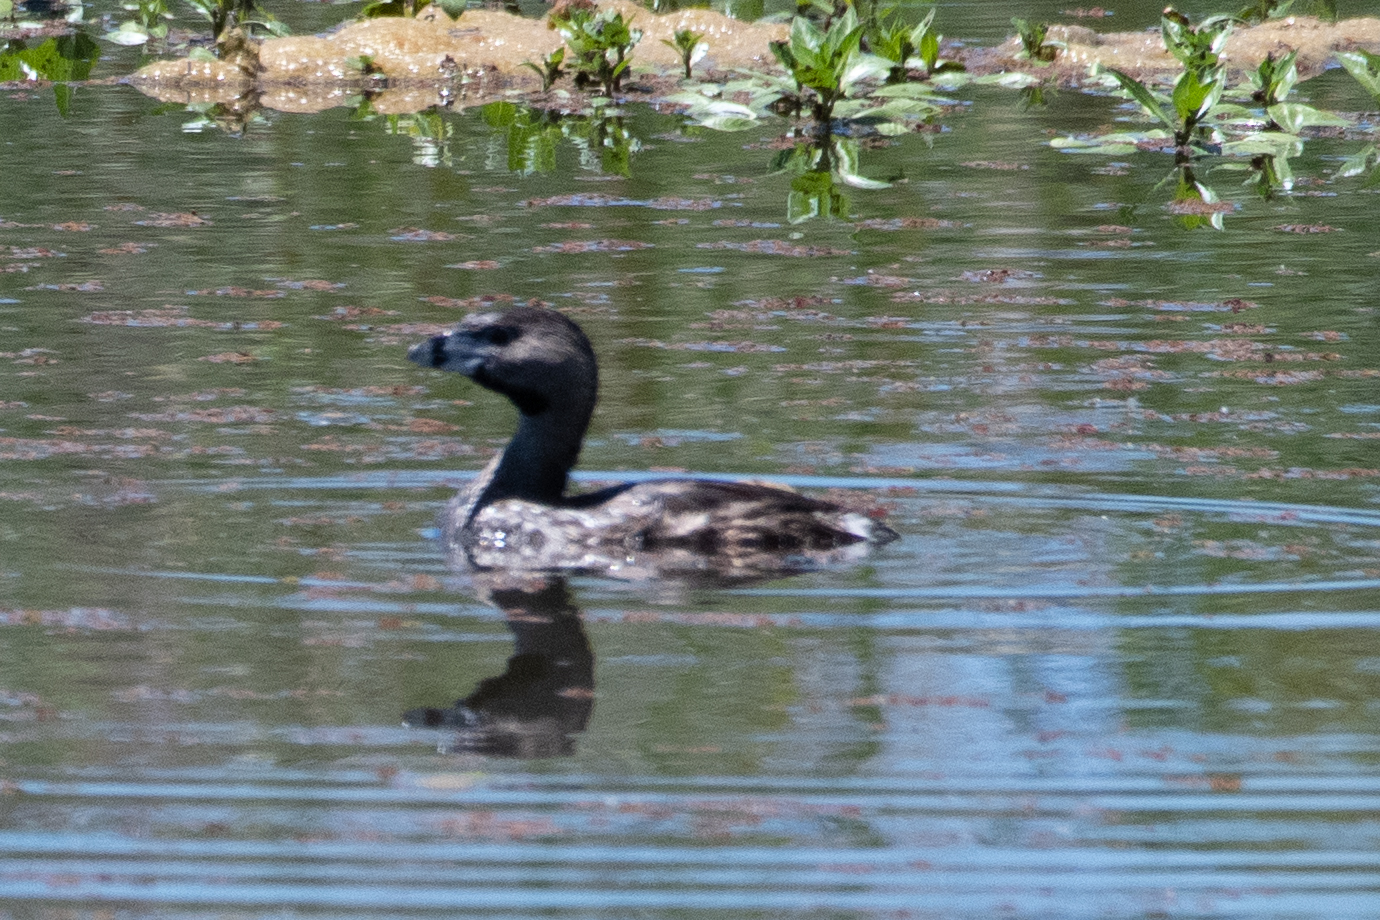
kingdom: Animalia
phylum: Chordata
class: Aves
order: Podicipediformes
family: Podicipedidae
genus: Podilymbus
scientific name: Podilymbus podiceps
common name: Pied-billed grebe
